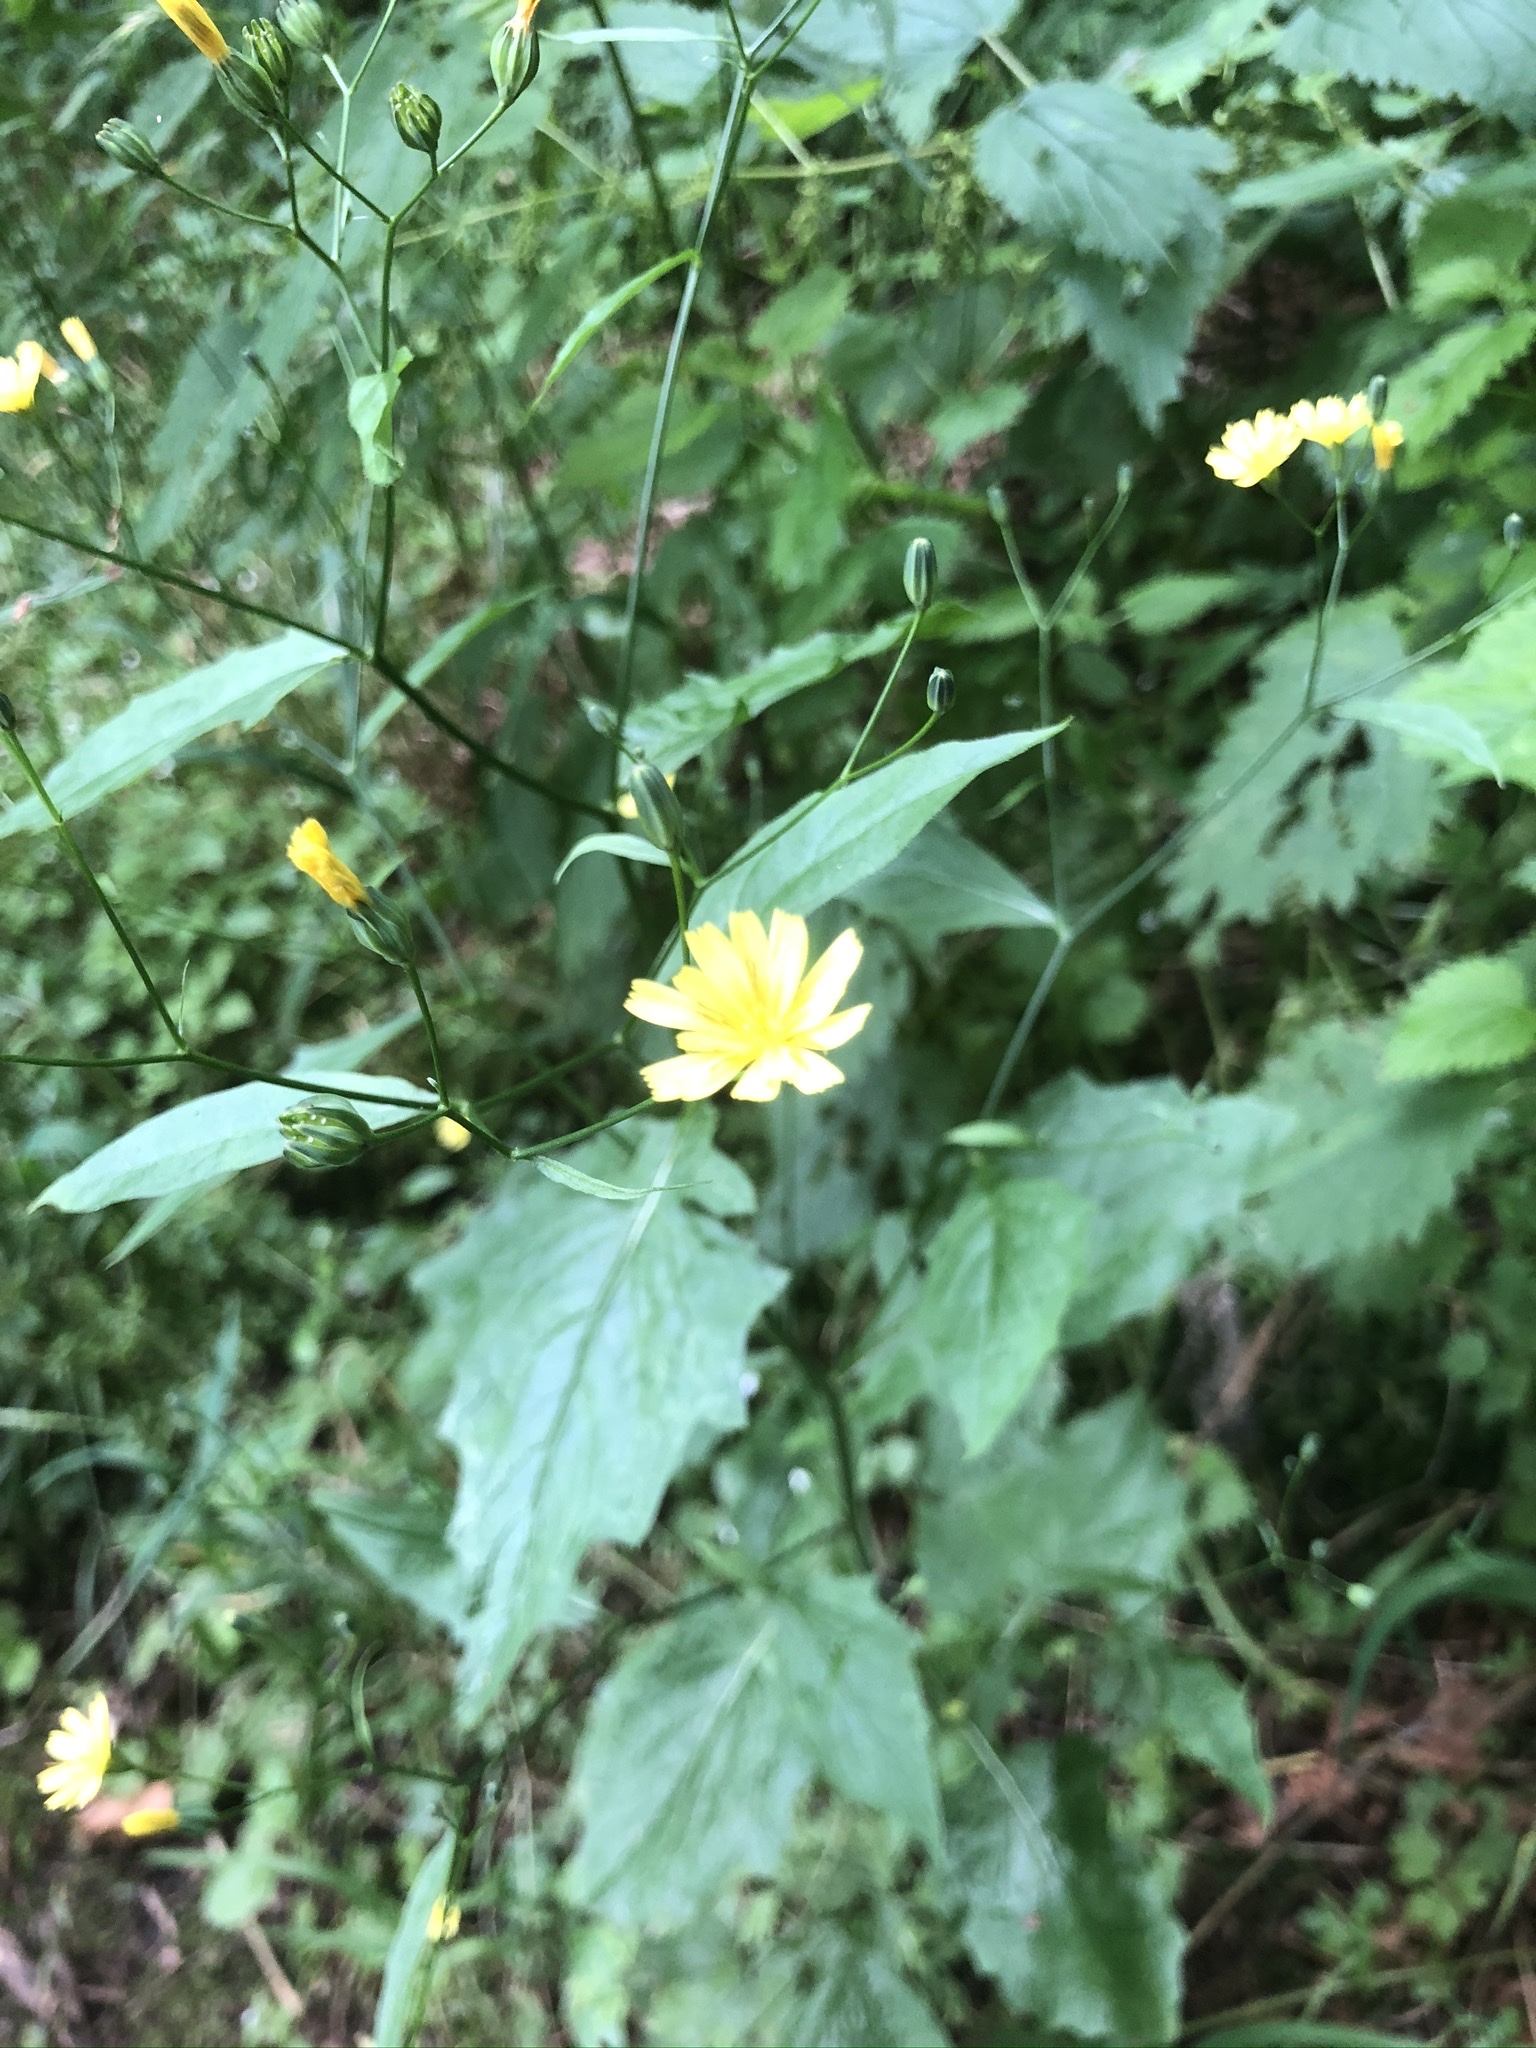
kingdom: Plantae
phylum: Tracheophyta
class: Magnoliopsida
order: Asterales
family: Asteraceae
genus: Lapsana
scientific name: Lapsana communis
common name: Nipplewort
